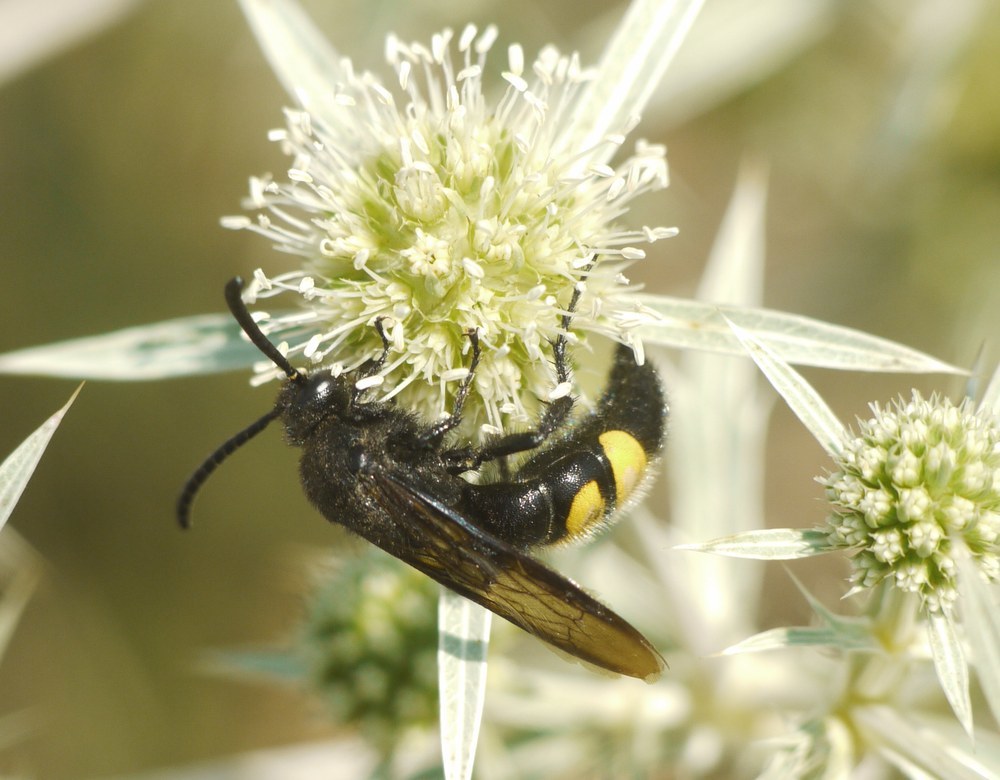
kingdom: Animalia
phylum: Arthropoda
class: Insecta
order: Hymenoptera
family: Scoliidae
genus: Scolia
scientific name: Scolia hirta
